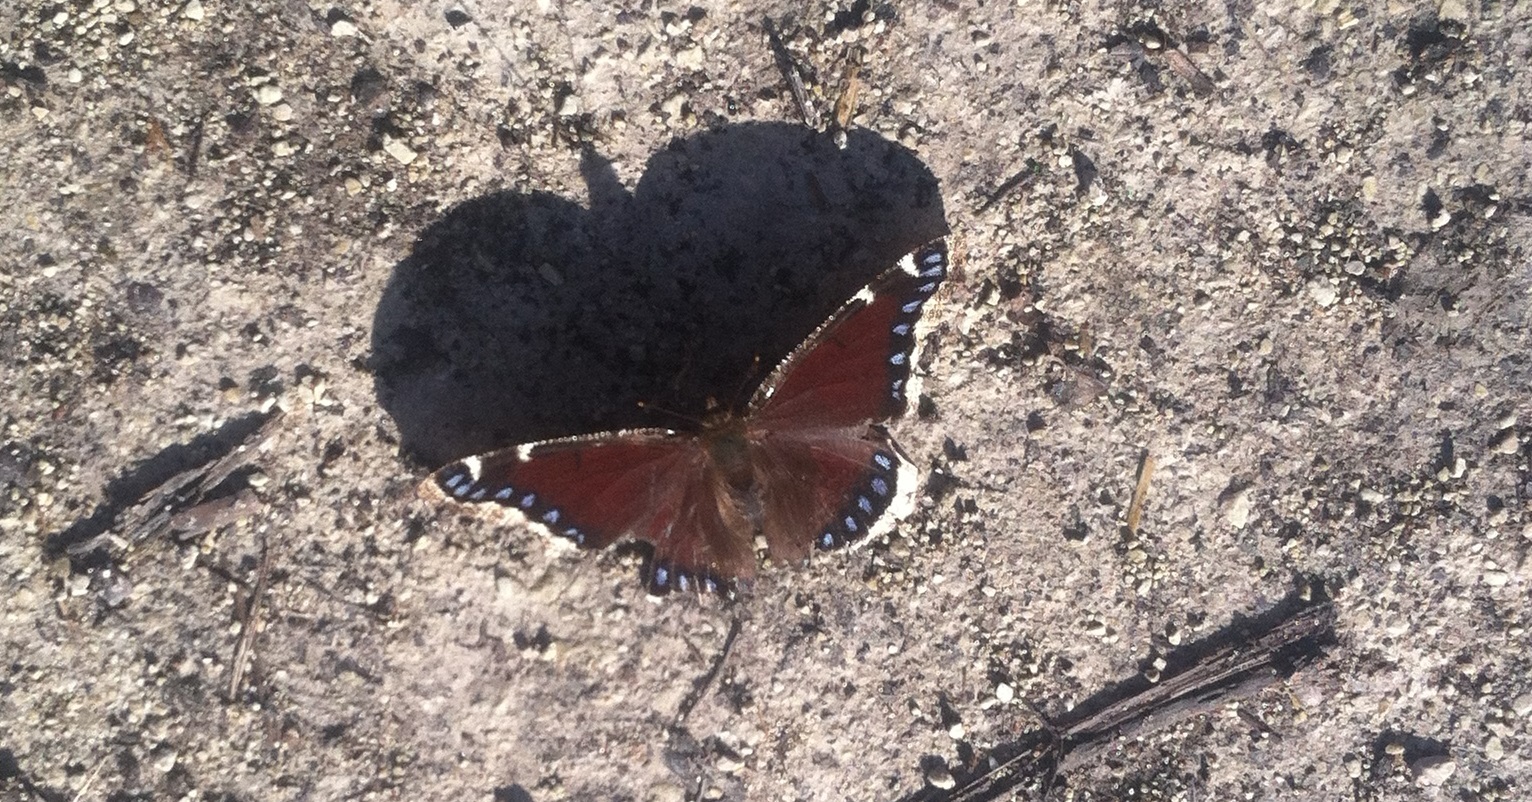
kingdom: Animalia
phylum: Arthropoda
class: Insecta
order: Lepidoptera
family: Nymphalidae
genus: Nymphalis
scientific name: Nymphalis antiopa
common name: Camberwell beauty
